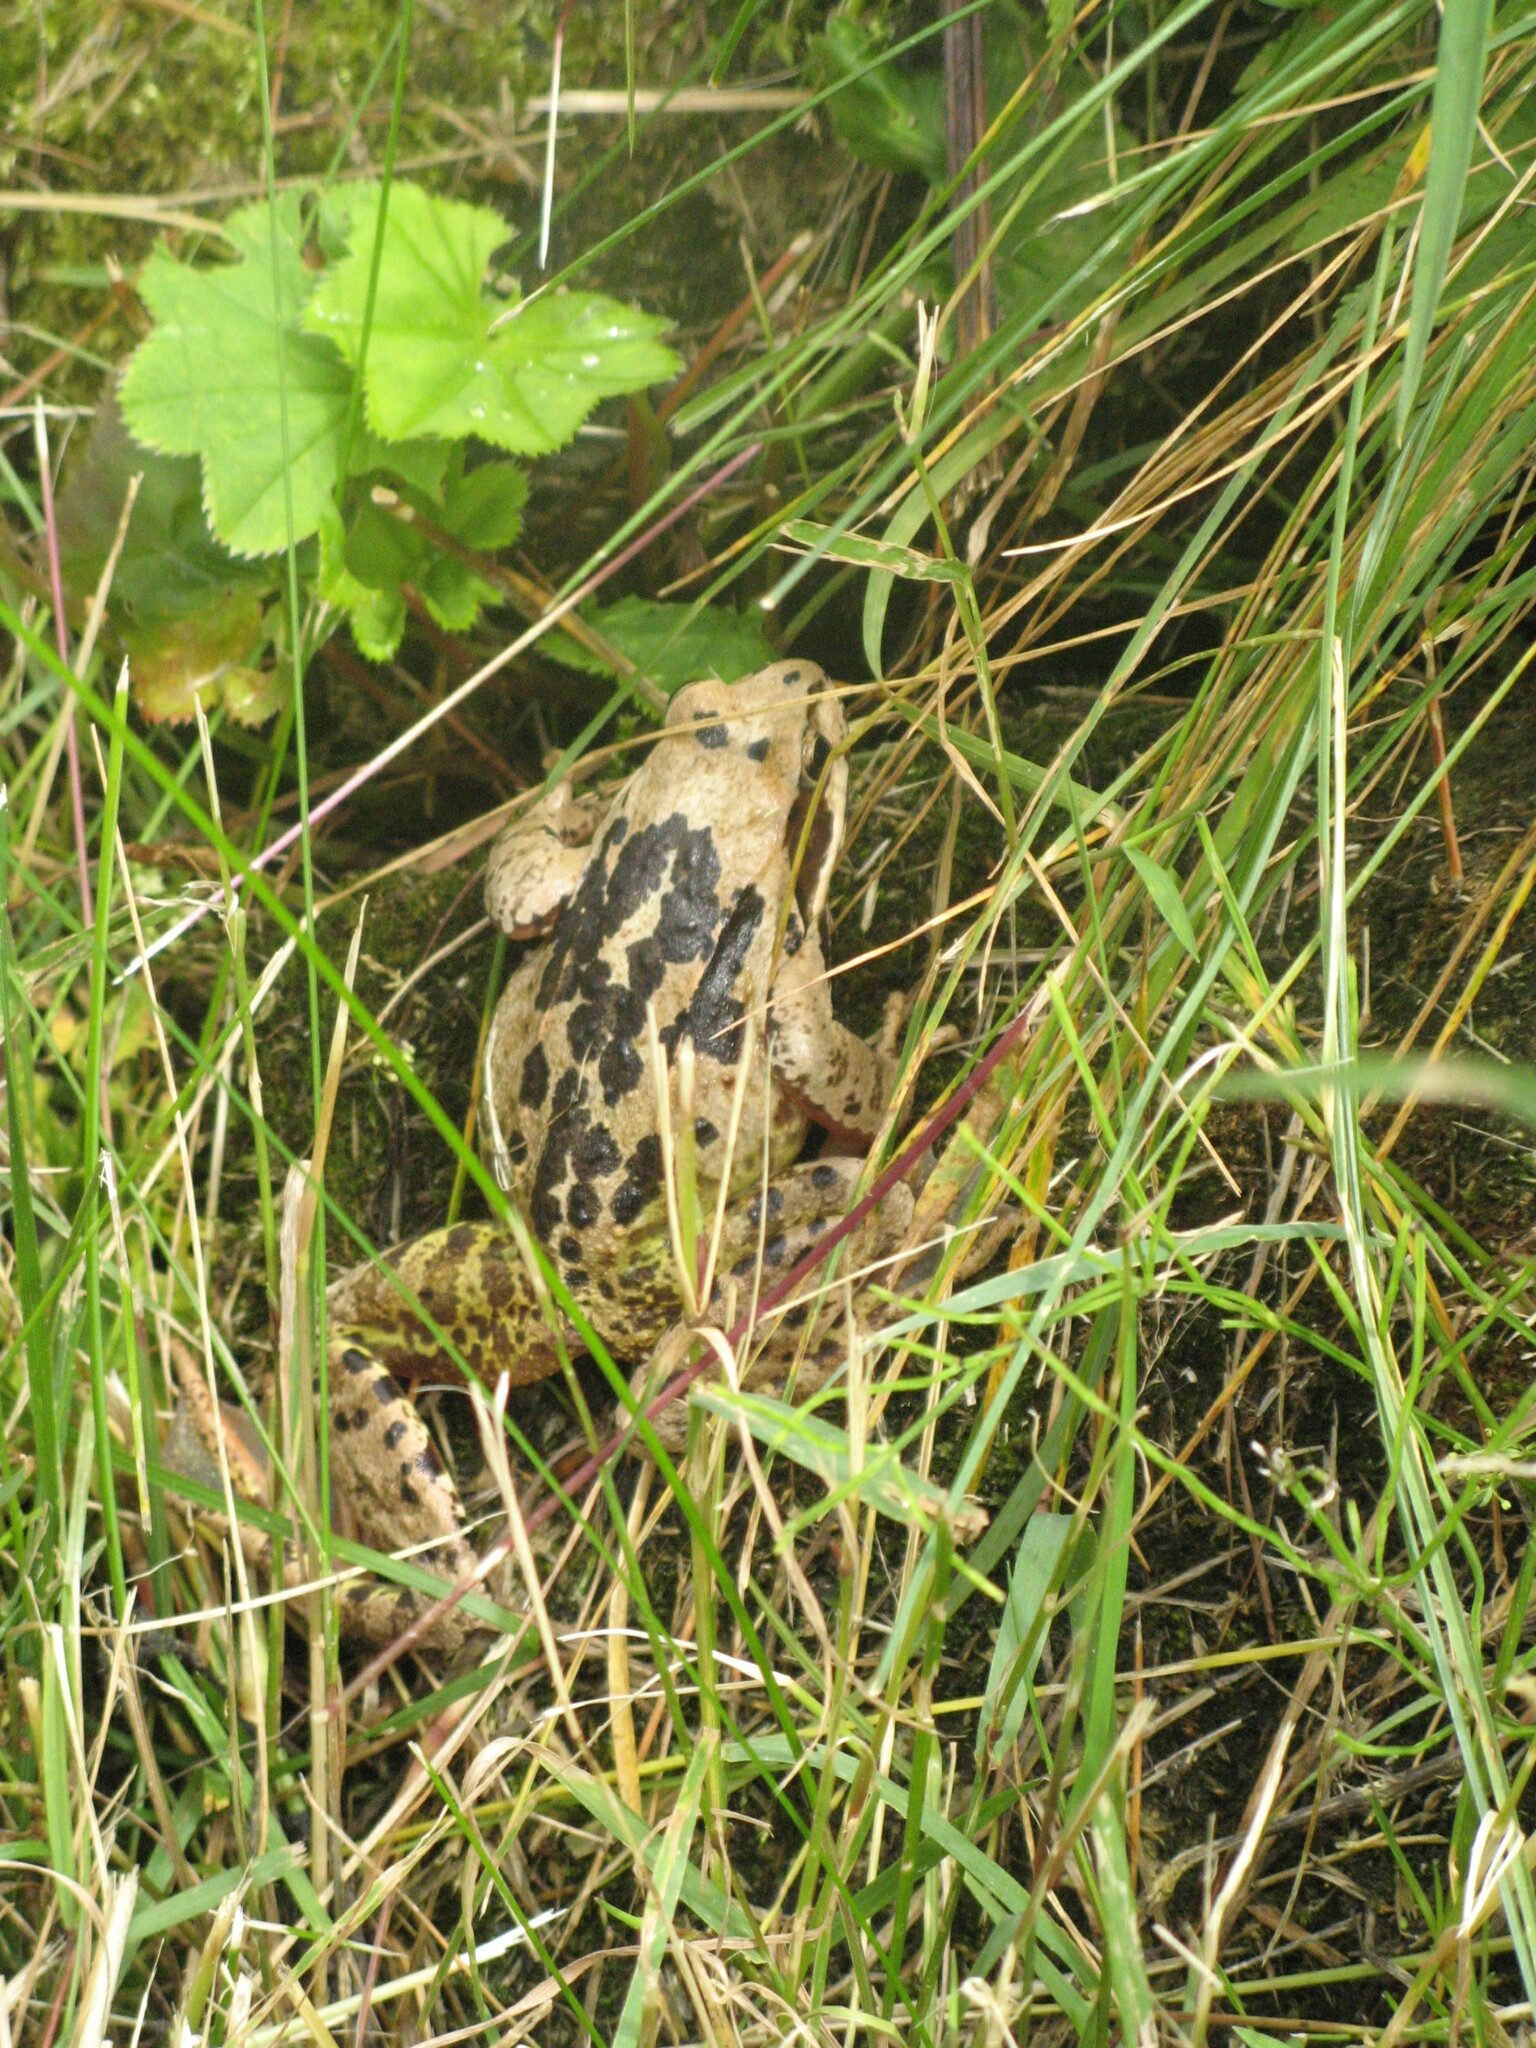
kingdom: Animalia
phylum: Chordata
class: Amphibia
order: Anura
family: Ranidae
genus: Rana
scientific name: Rana temporaria
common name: Common frog
